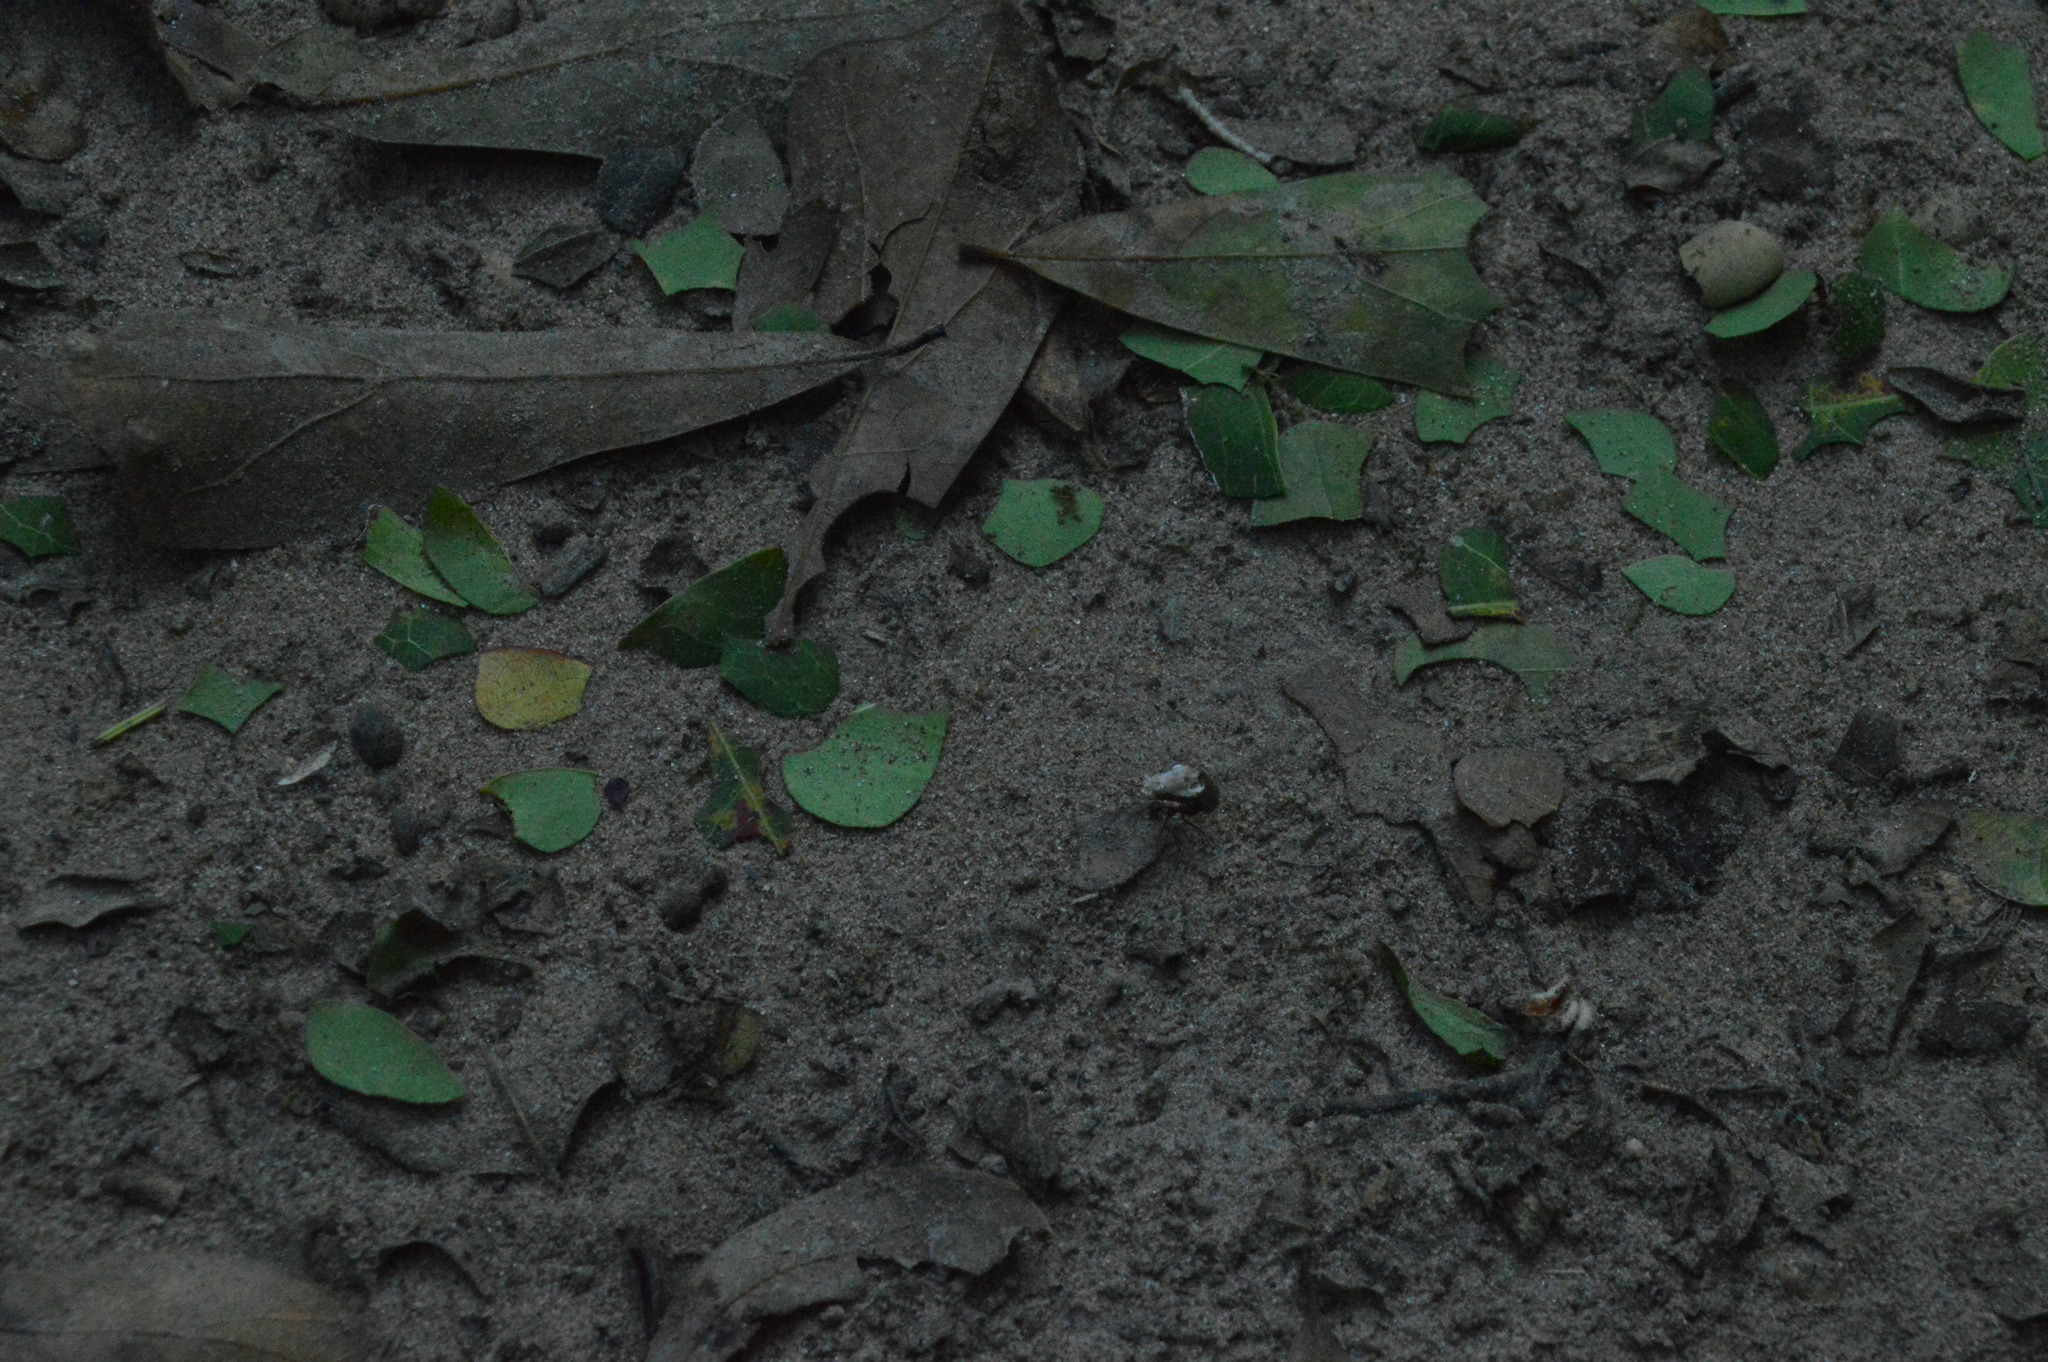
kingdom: Animalia
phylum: Arthropoda
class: Insecta
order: Hymenoptera
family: Formicidae
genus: Atta
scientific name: Atta texana
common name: Texas leafcutting ant
